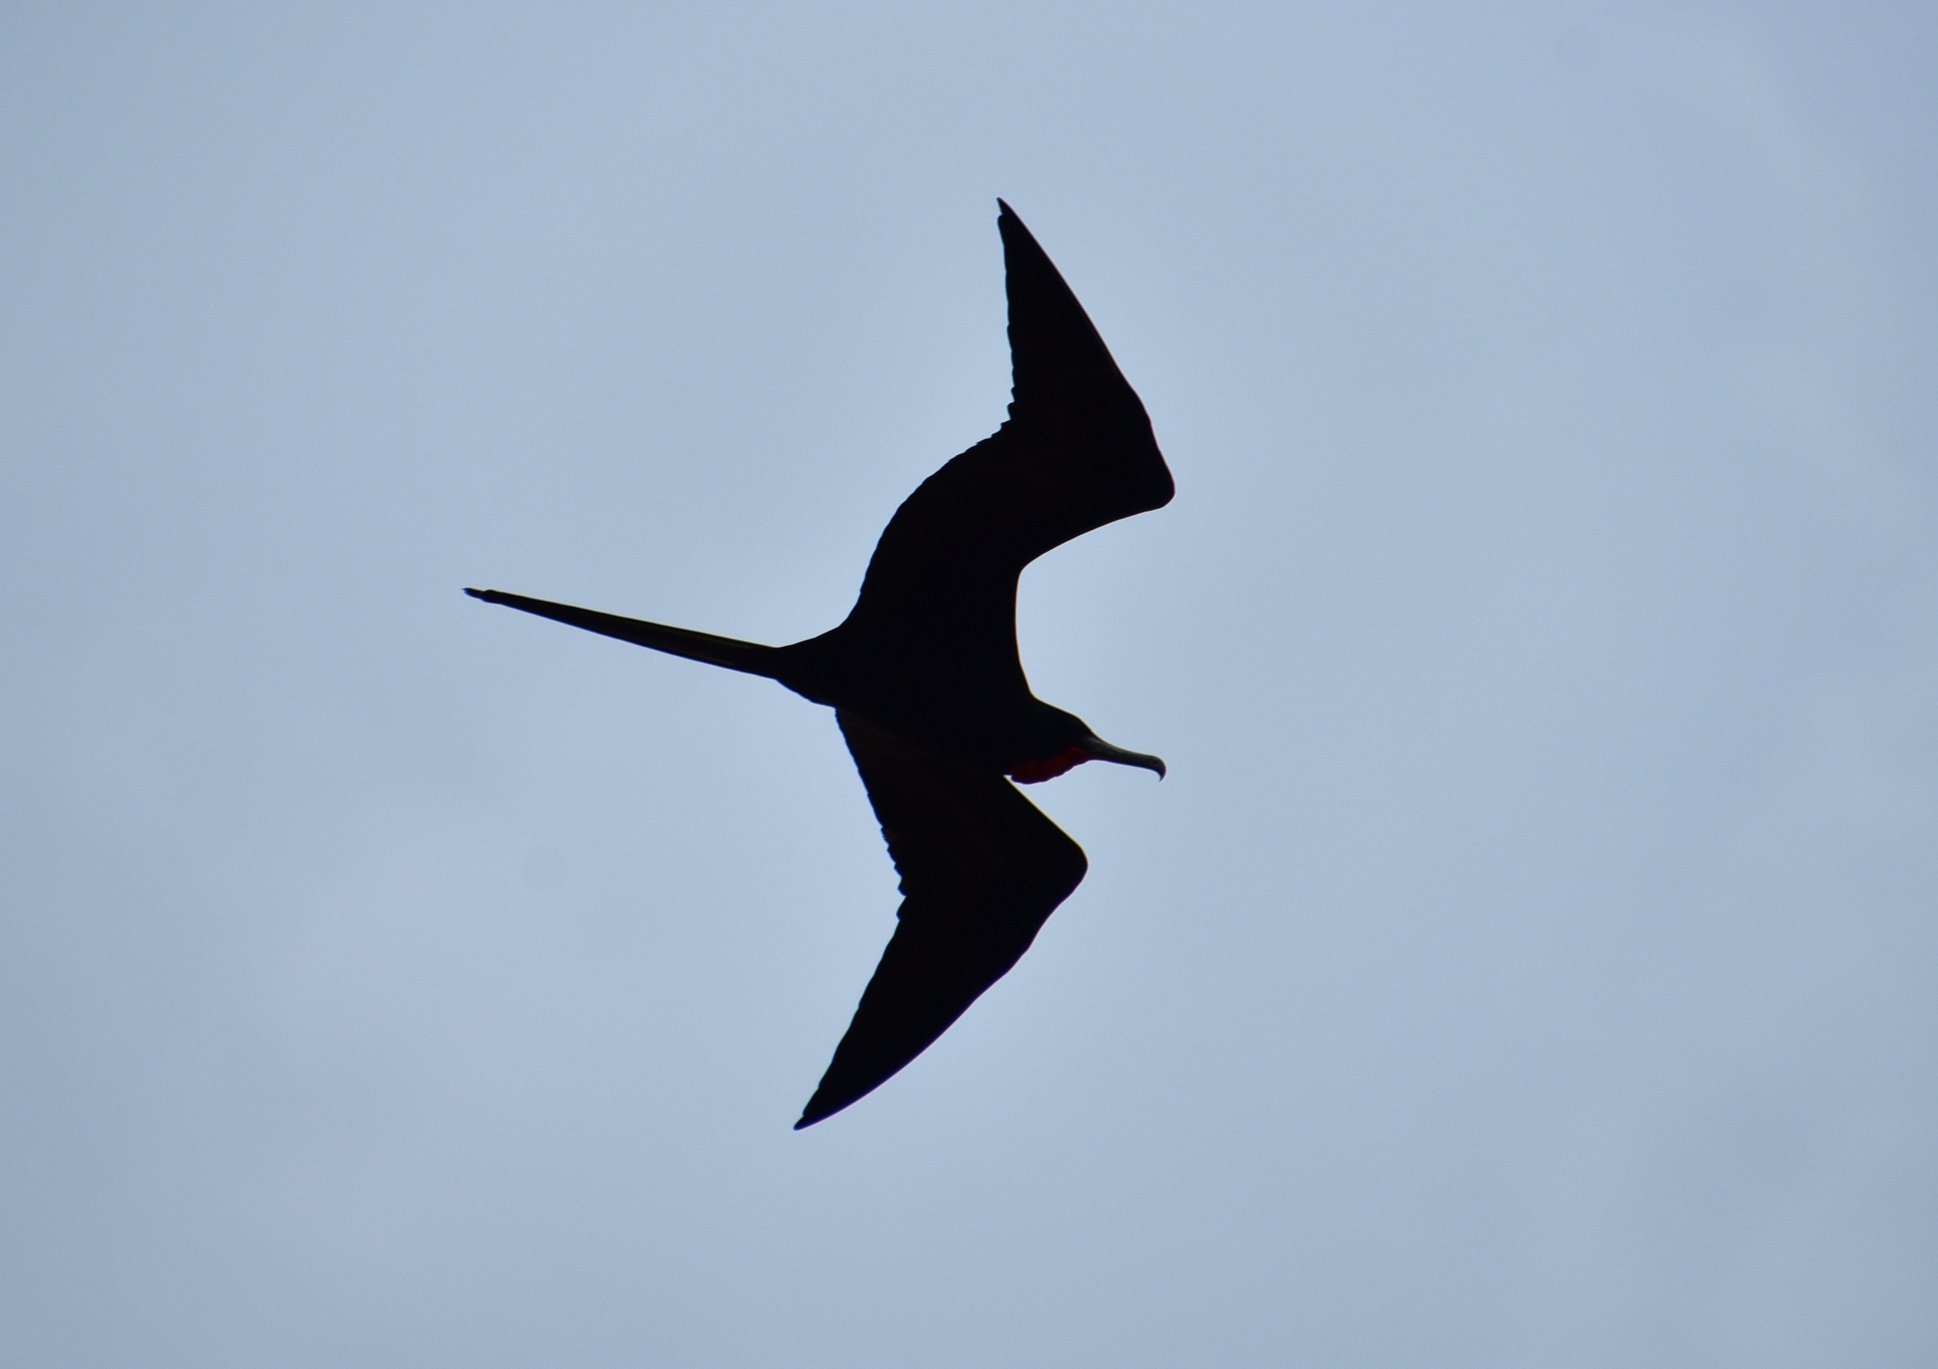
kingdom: Animalia
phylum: Chordata
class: Aves
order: Suliformes
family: Fregatidae
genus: Fregata
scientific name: Fregata magnificens
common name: Magnificent frigatebird
